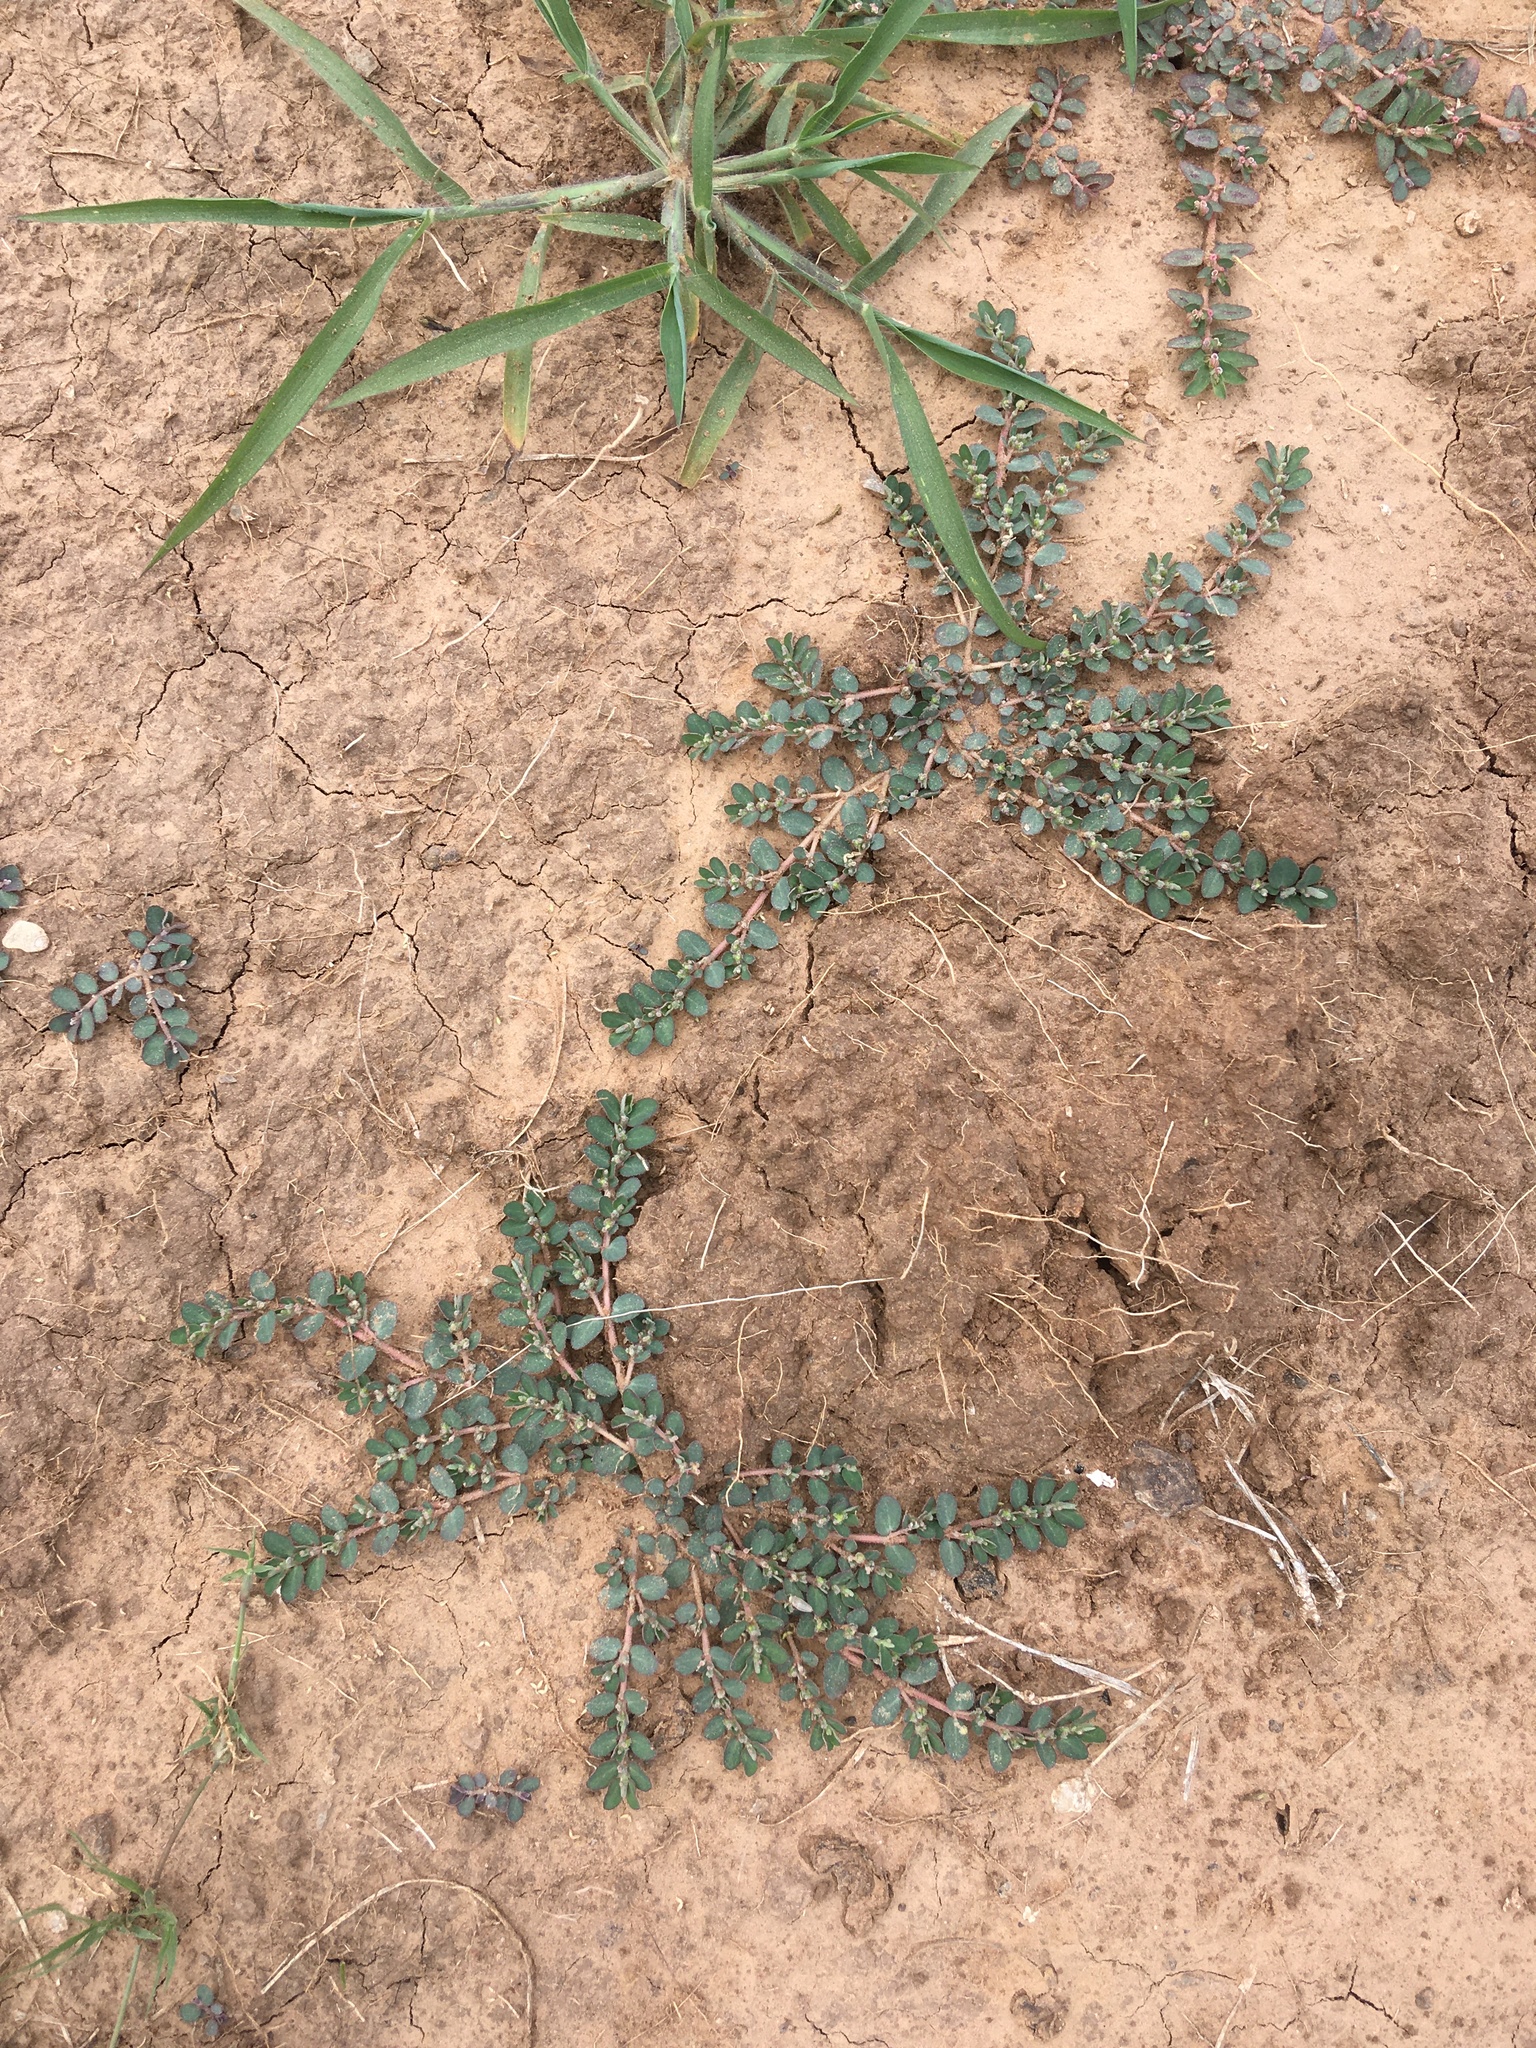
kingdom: Plantae
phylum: Tracheophyta
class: Magnoliopsida
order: Malpighiales
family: Euphorbiaceae
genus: Euphorbia
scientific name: Euphorbia prostrata
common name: Prostrate sandmat
